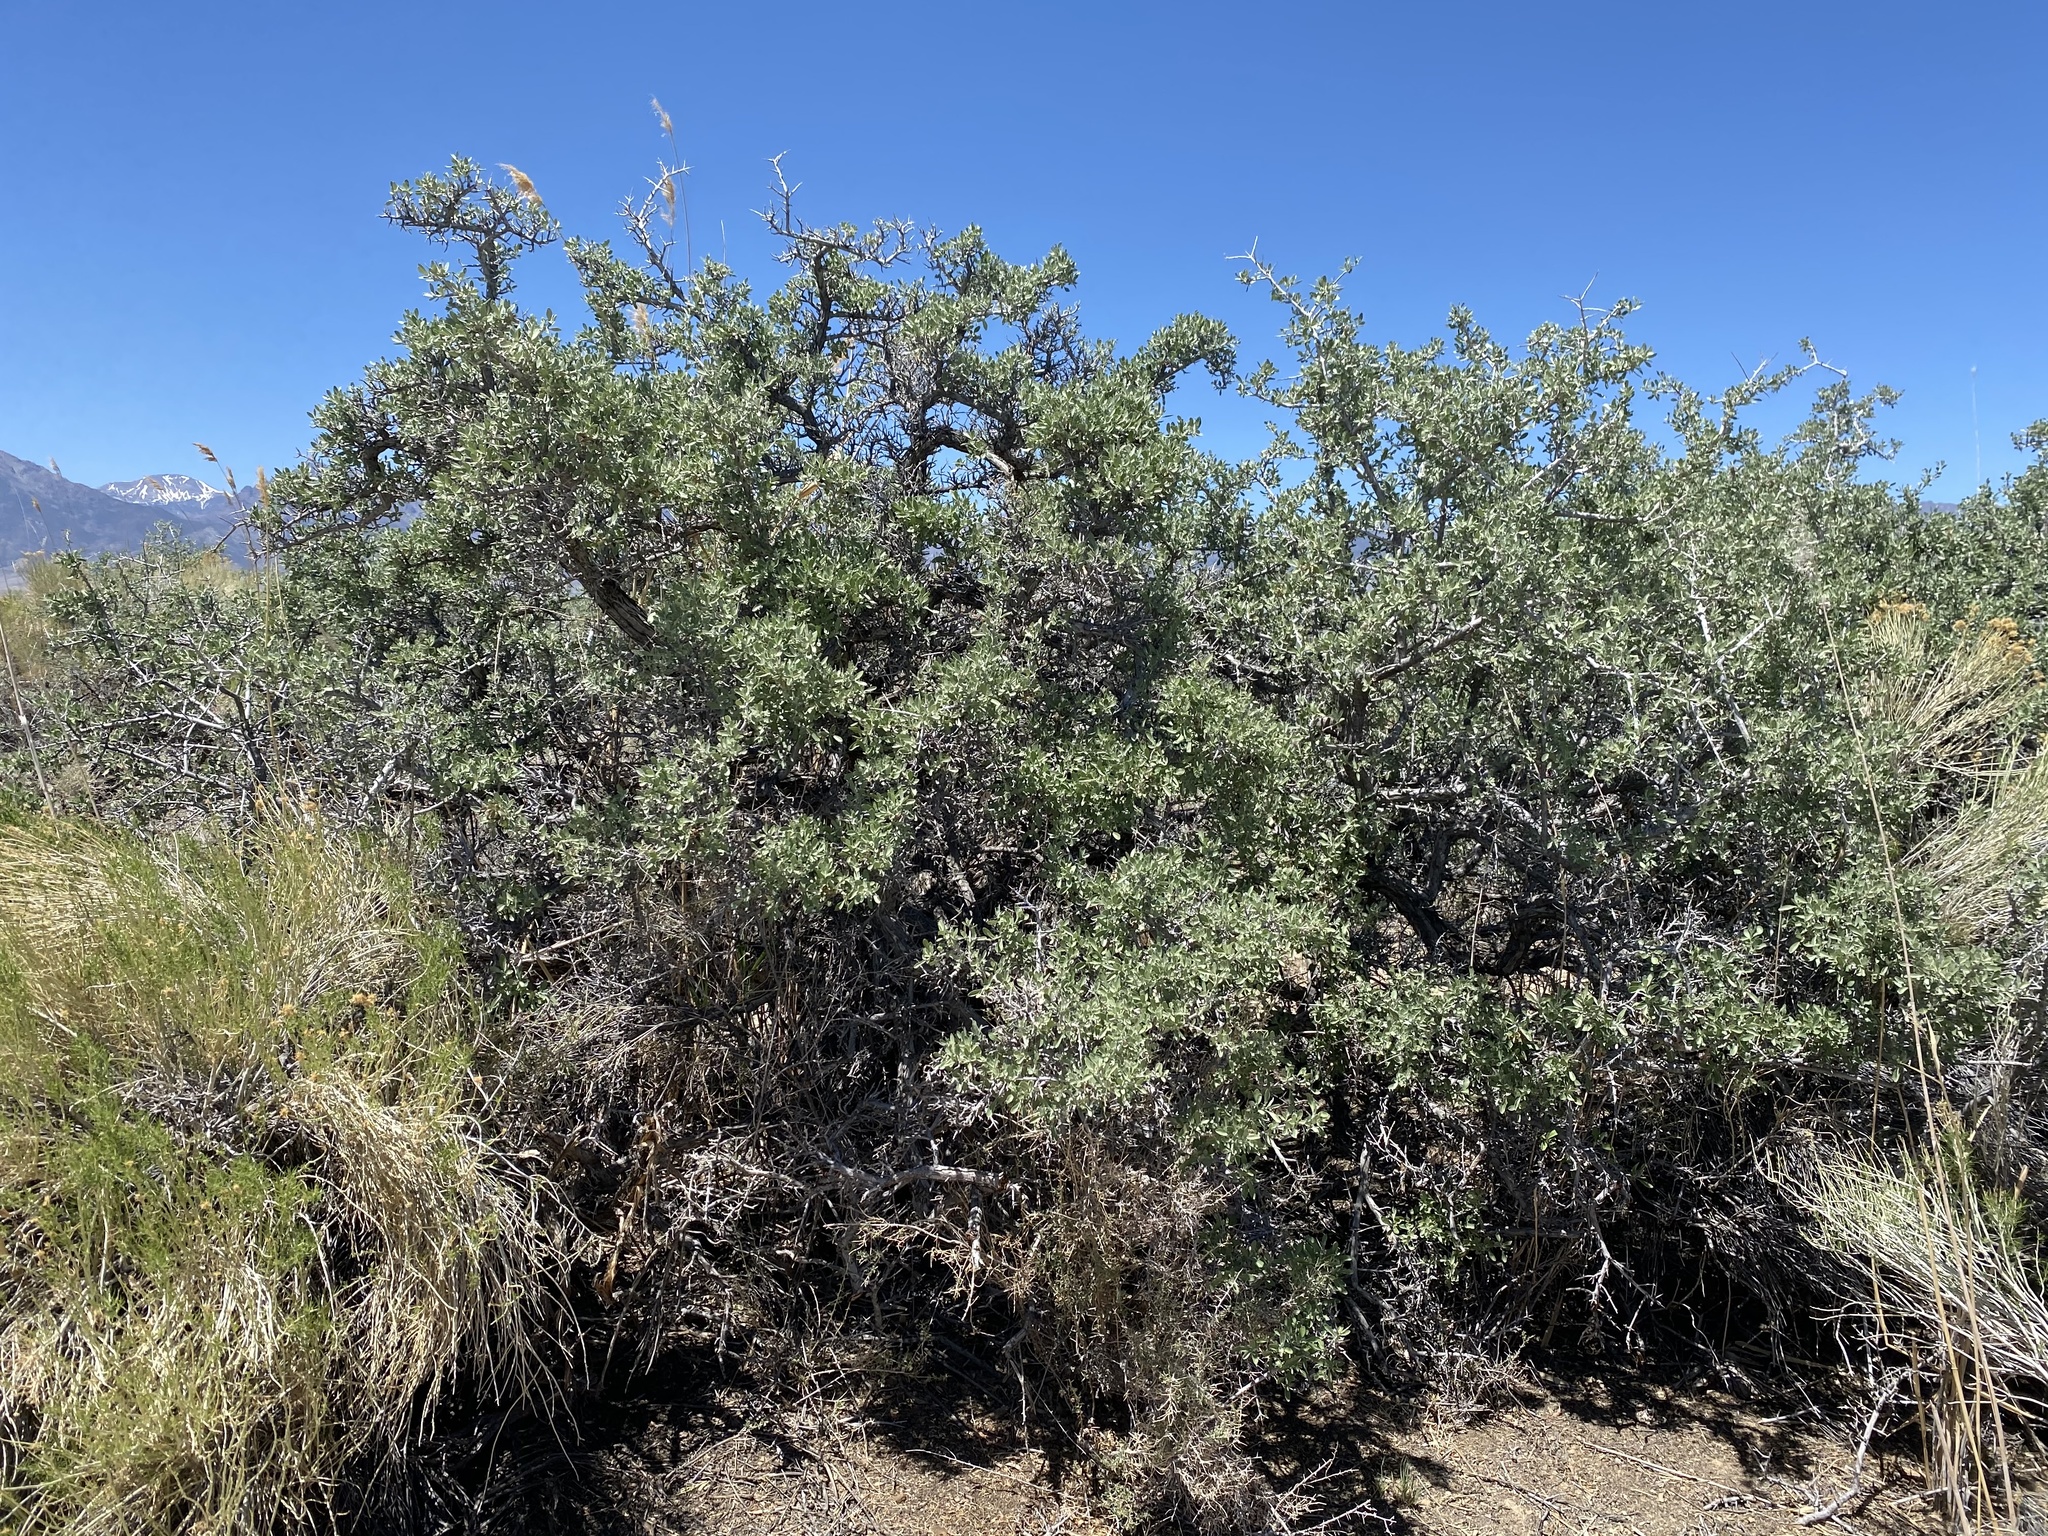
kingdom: Plantae
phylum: Tracheophyta
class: Magnoliopsida
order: Rosales
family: Elaeagnaceae
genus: Shepherdia
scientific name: Shepherdia argentea
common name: Silver buffaloberry
